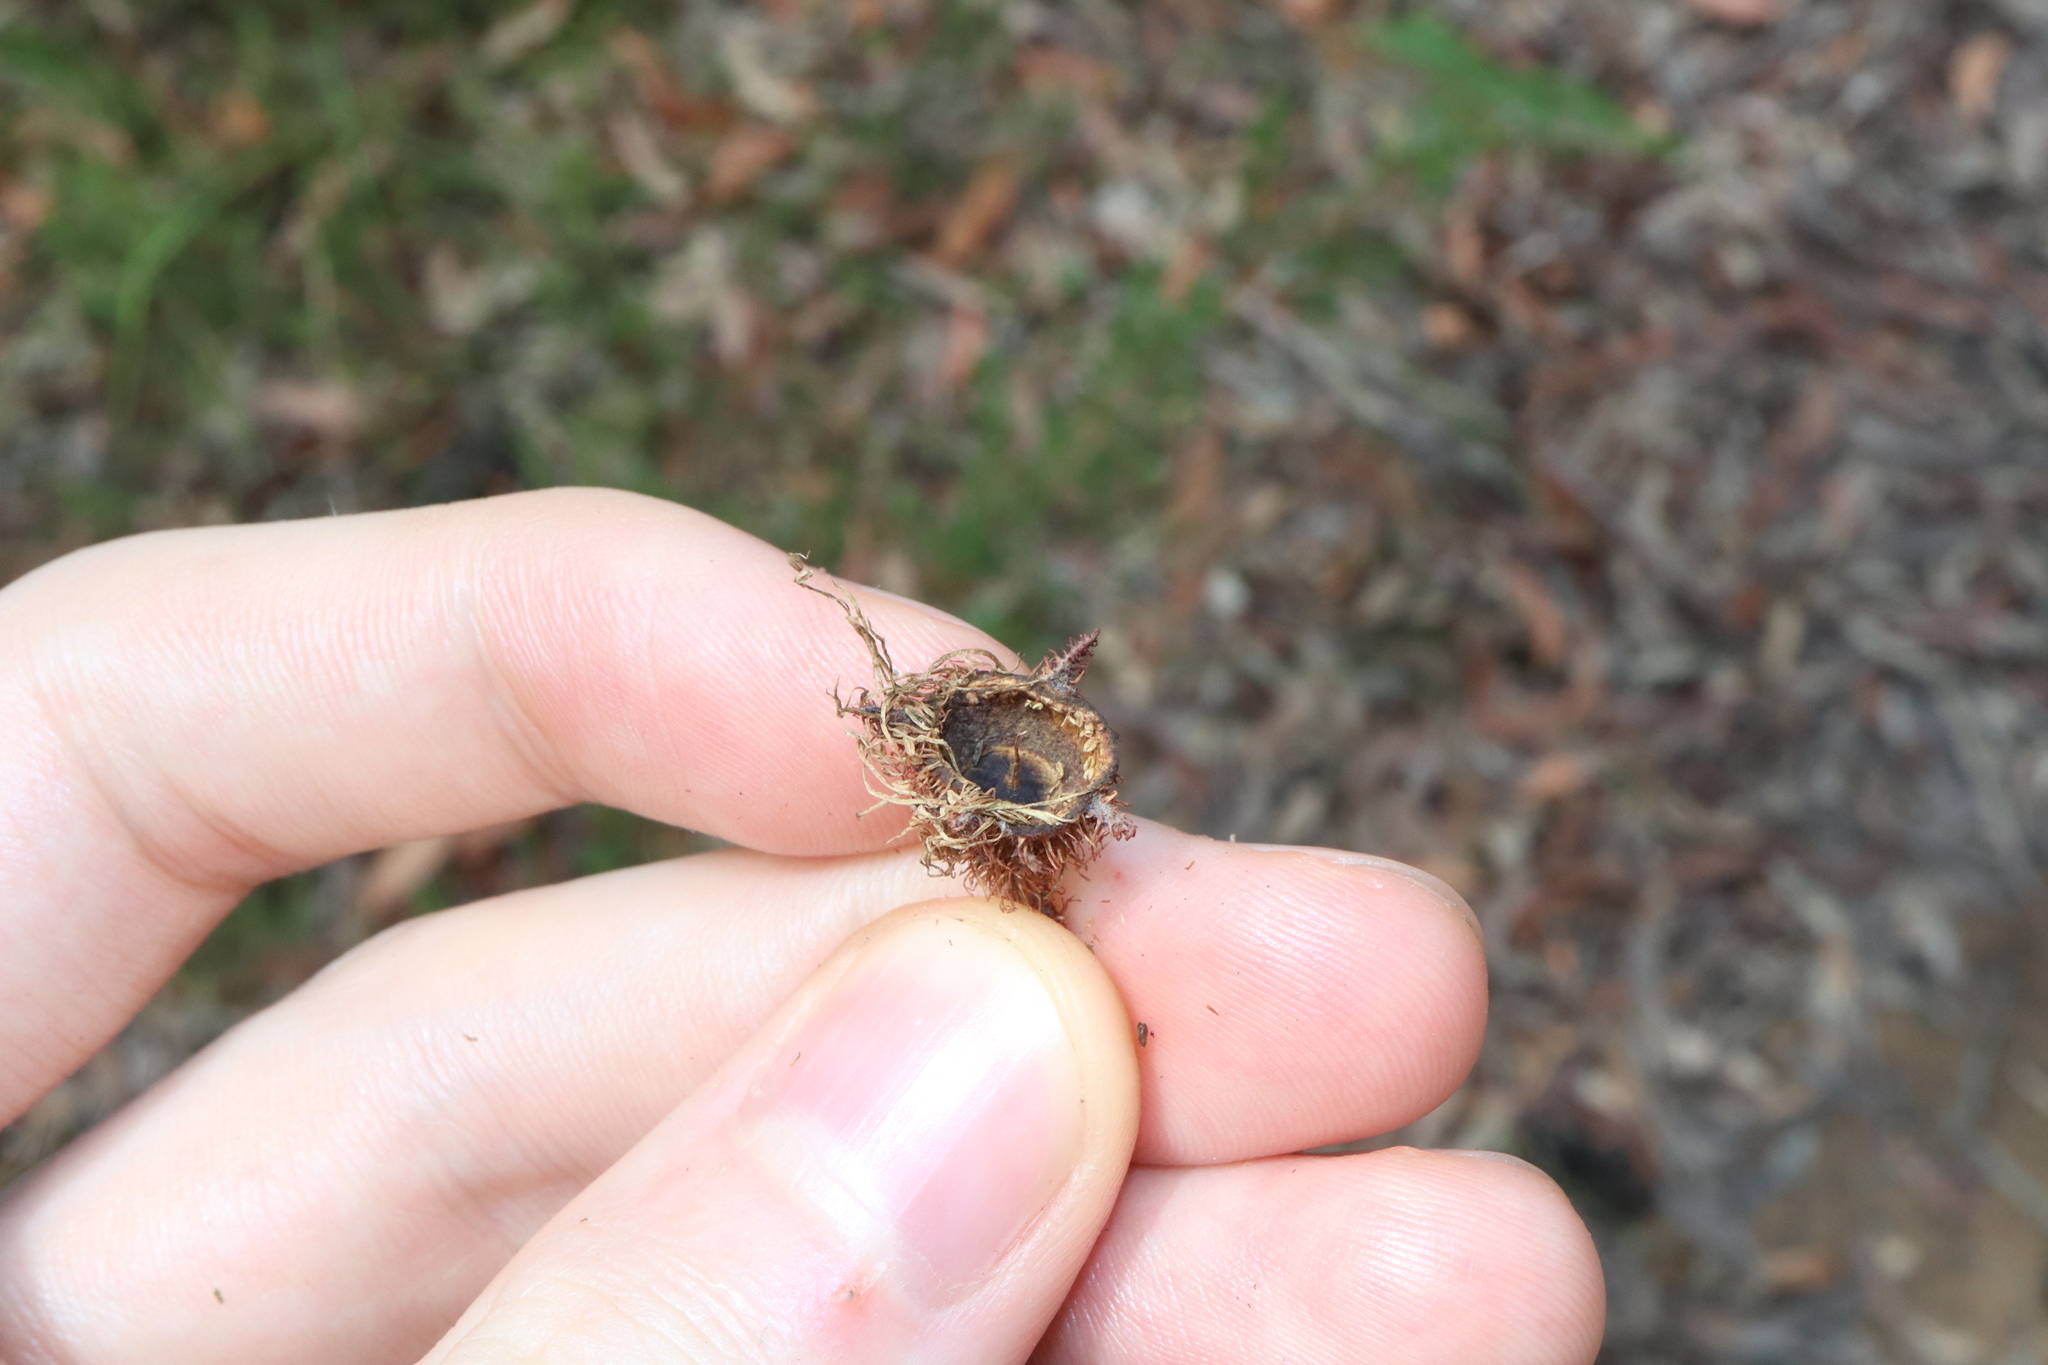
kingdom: Plantae
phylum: Tracheophyta
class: Magnoliopsida
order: Myrtales
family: Myrtaceae
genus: Angophora
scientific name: Angophora hispida
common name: Dwarf-apple
